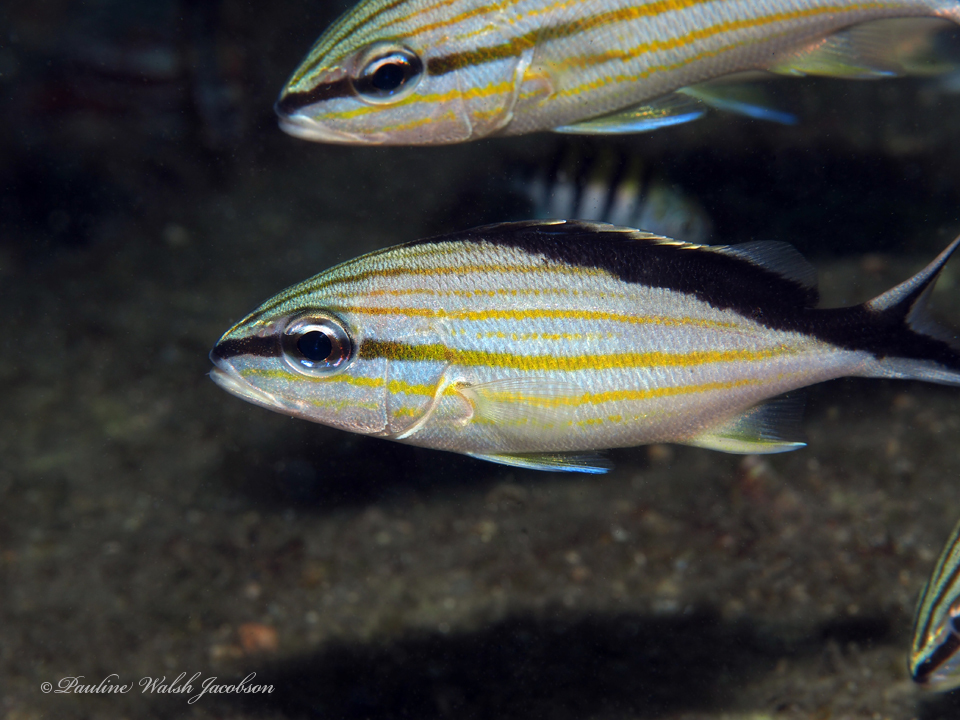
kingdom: Animalia
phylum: Chordata
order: Perciformes
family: Haemulidae
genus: Haemulon
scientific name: Haemulon melanurum
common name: Cottonwick
